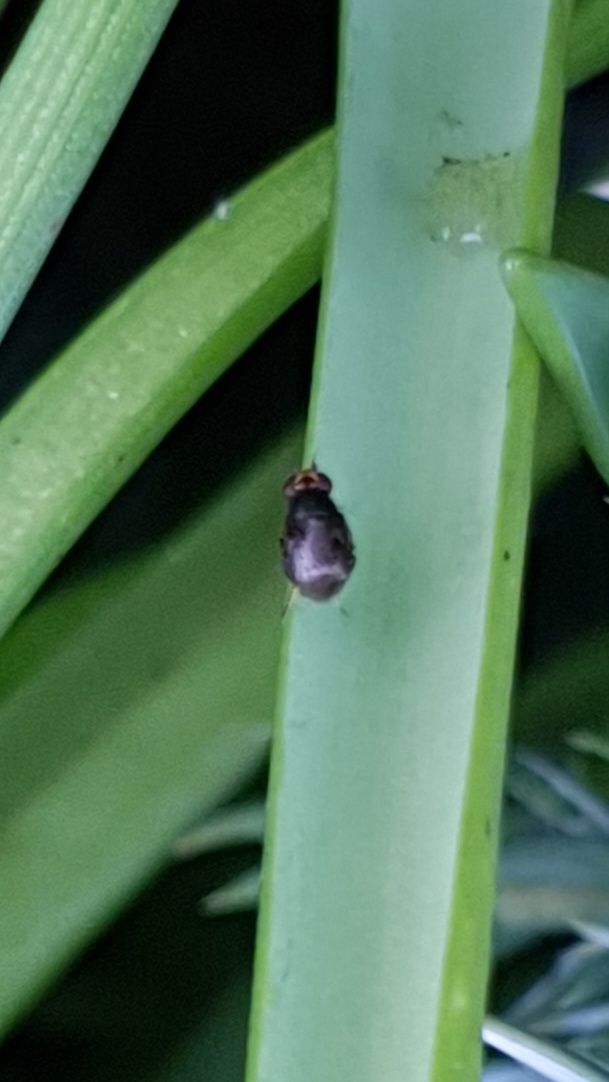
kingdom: Animalia
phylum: Arthropoda
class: Insecta
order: Diptera
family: Chloropidae
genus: Camarota
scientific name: Camarota curvipennis
